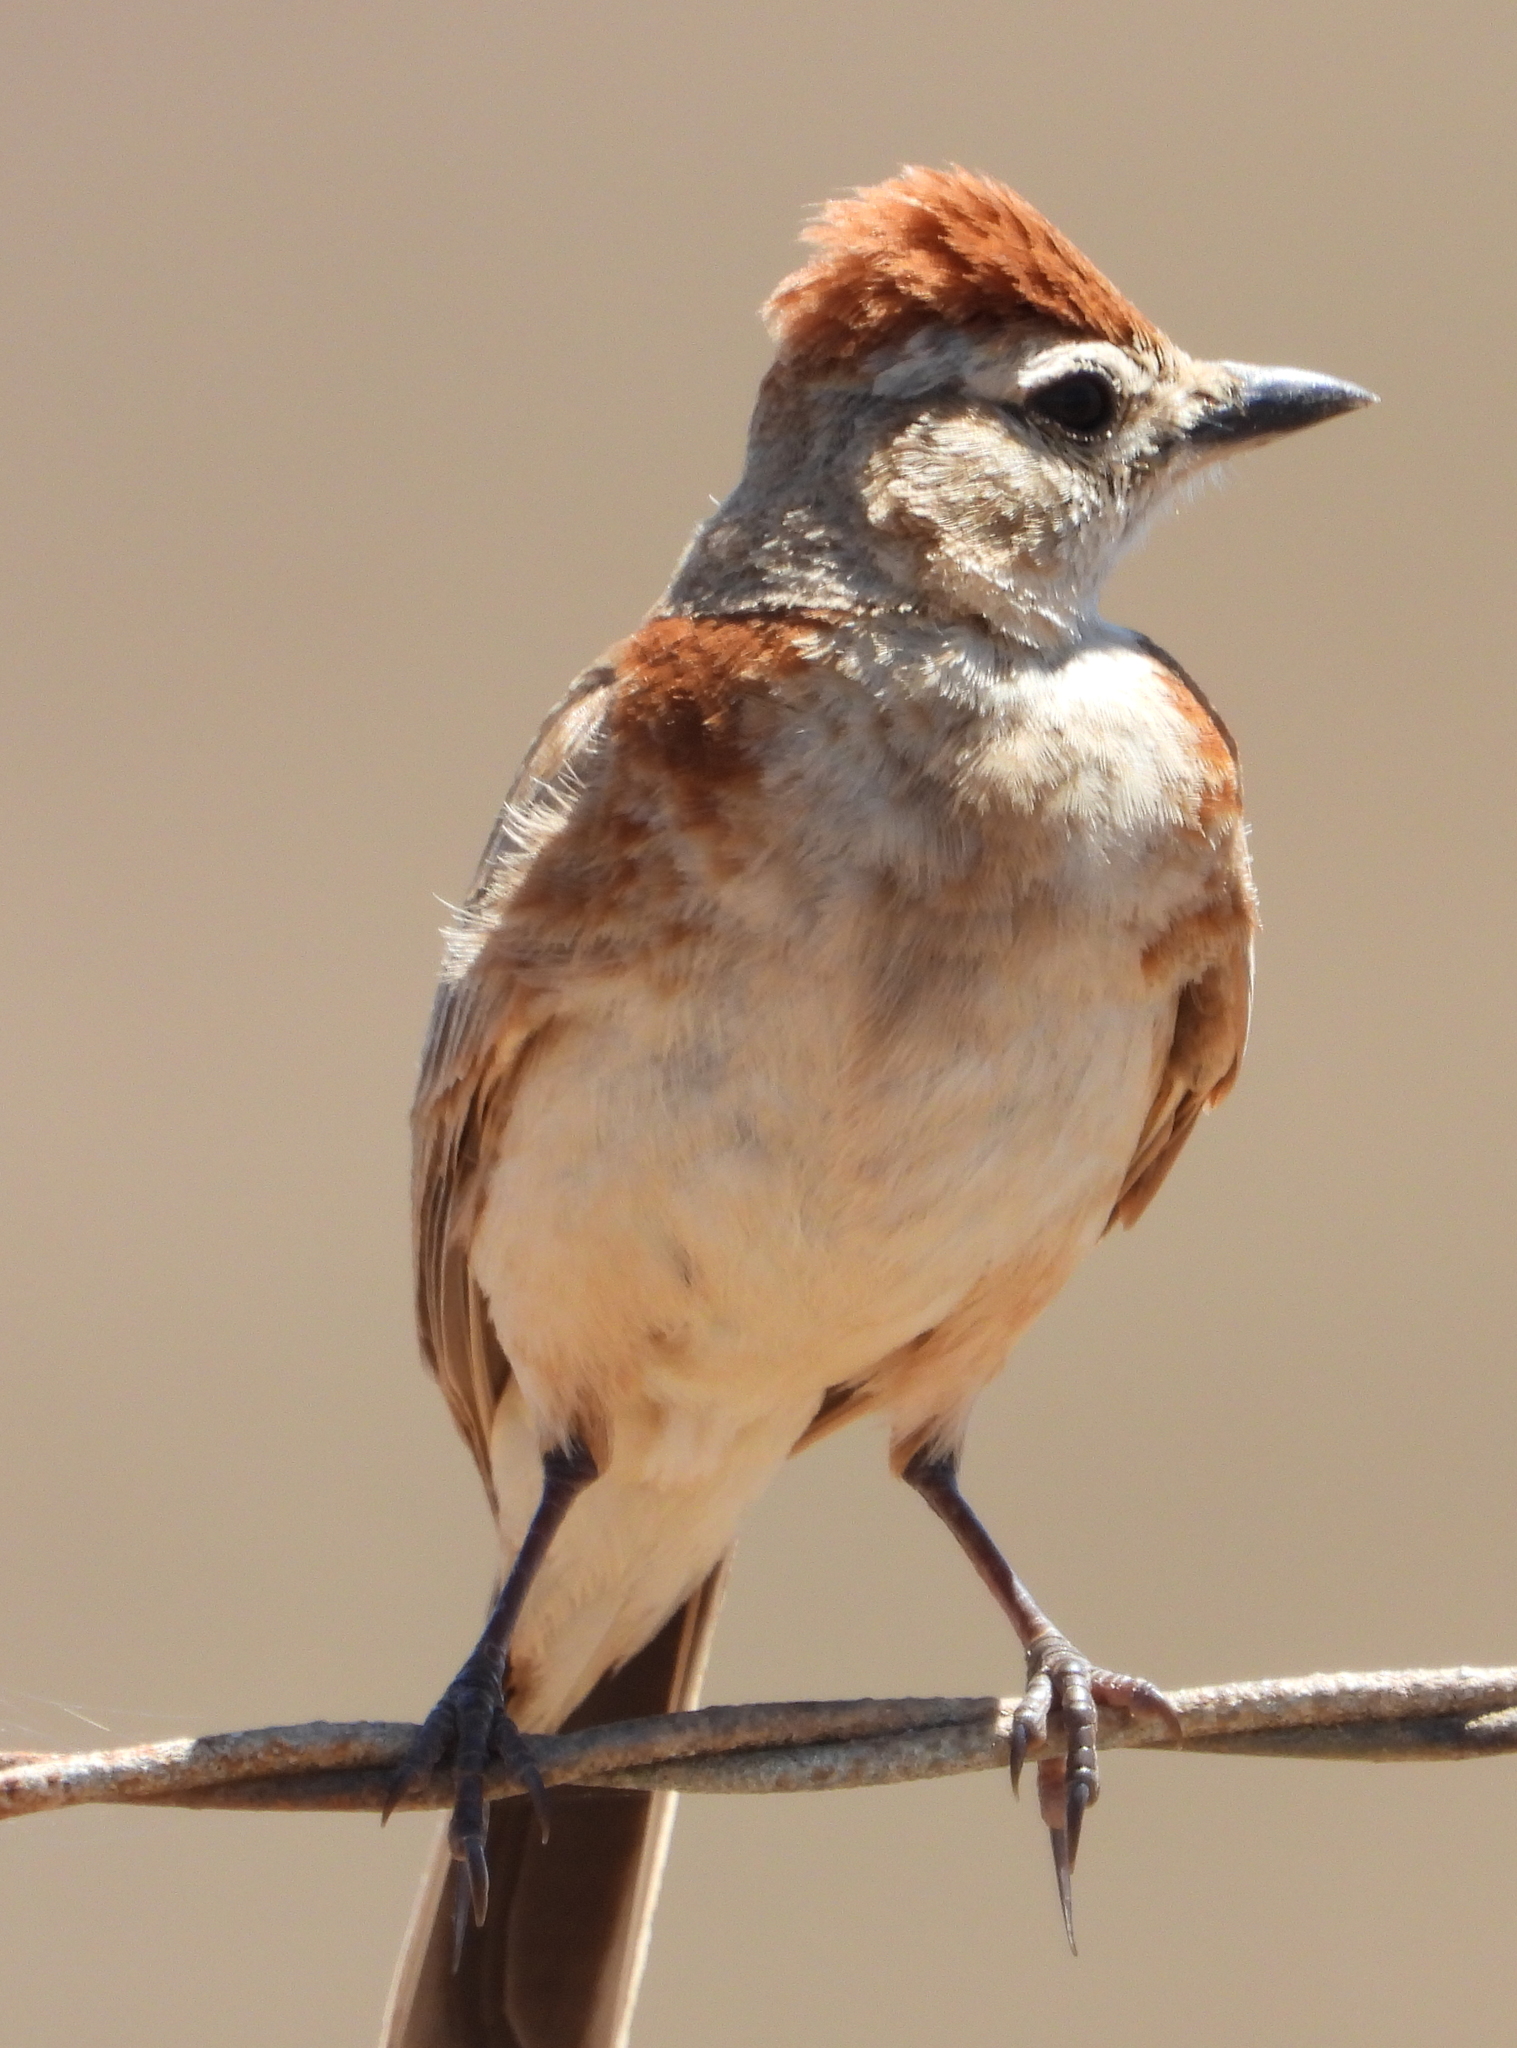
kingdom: Animalia
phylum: Chordata
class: Aves
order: Passeriformes
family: Alaudidae
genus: Calandrella
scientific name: Calandrella cinerea
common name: Red-capped lark
